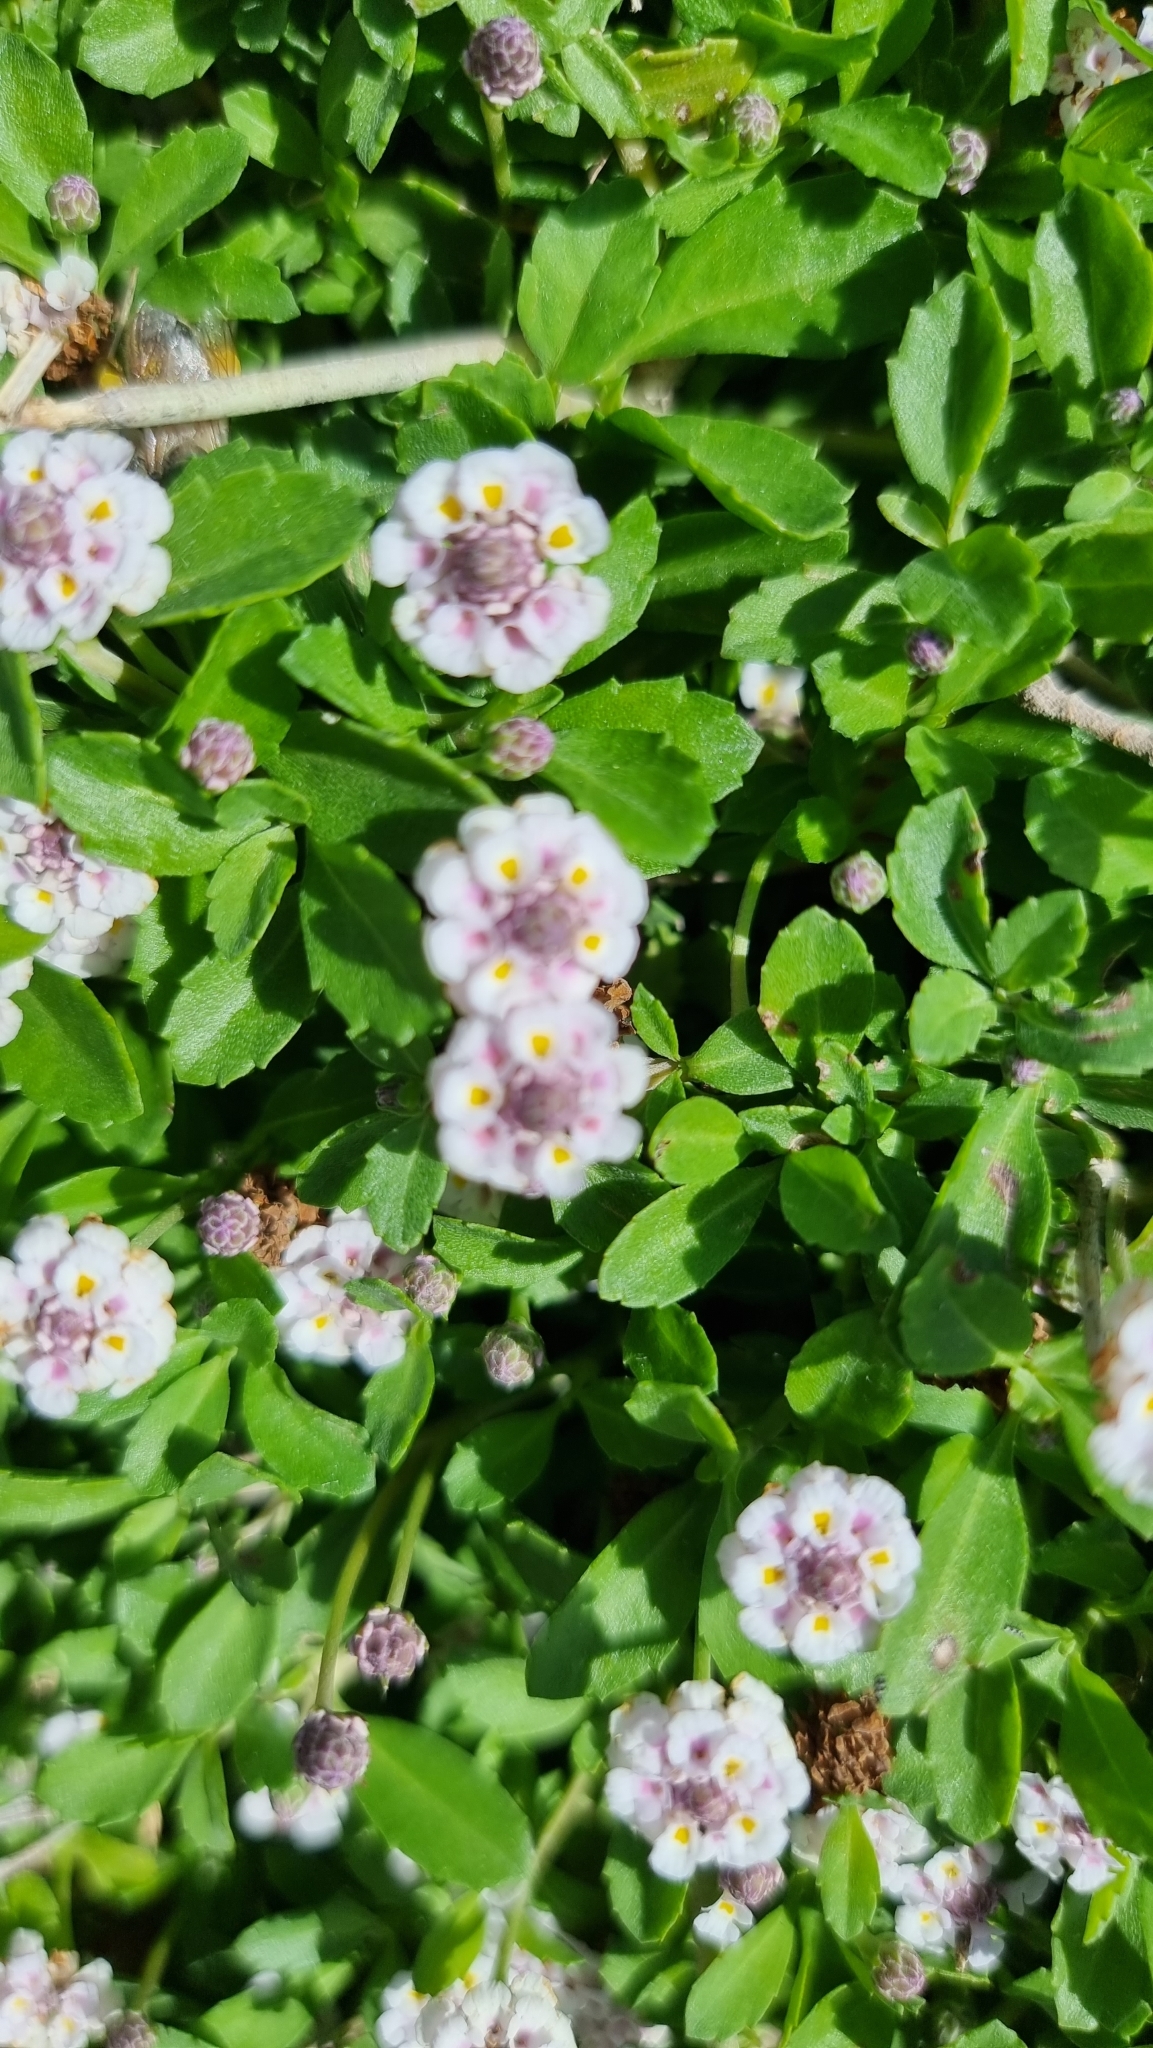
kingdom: Plantae
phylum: Tracheophyta
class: Magnoliopsida
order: Lamiales
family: Verbenaceae
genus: Phyla
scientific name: Phyla nodiflora
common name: Frogfruit
